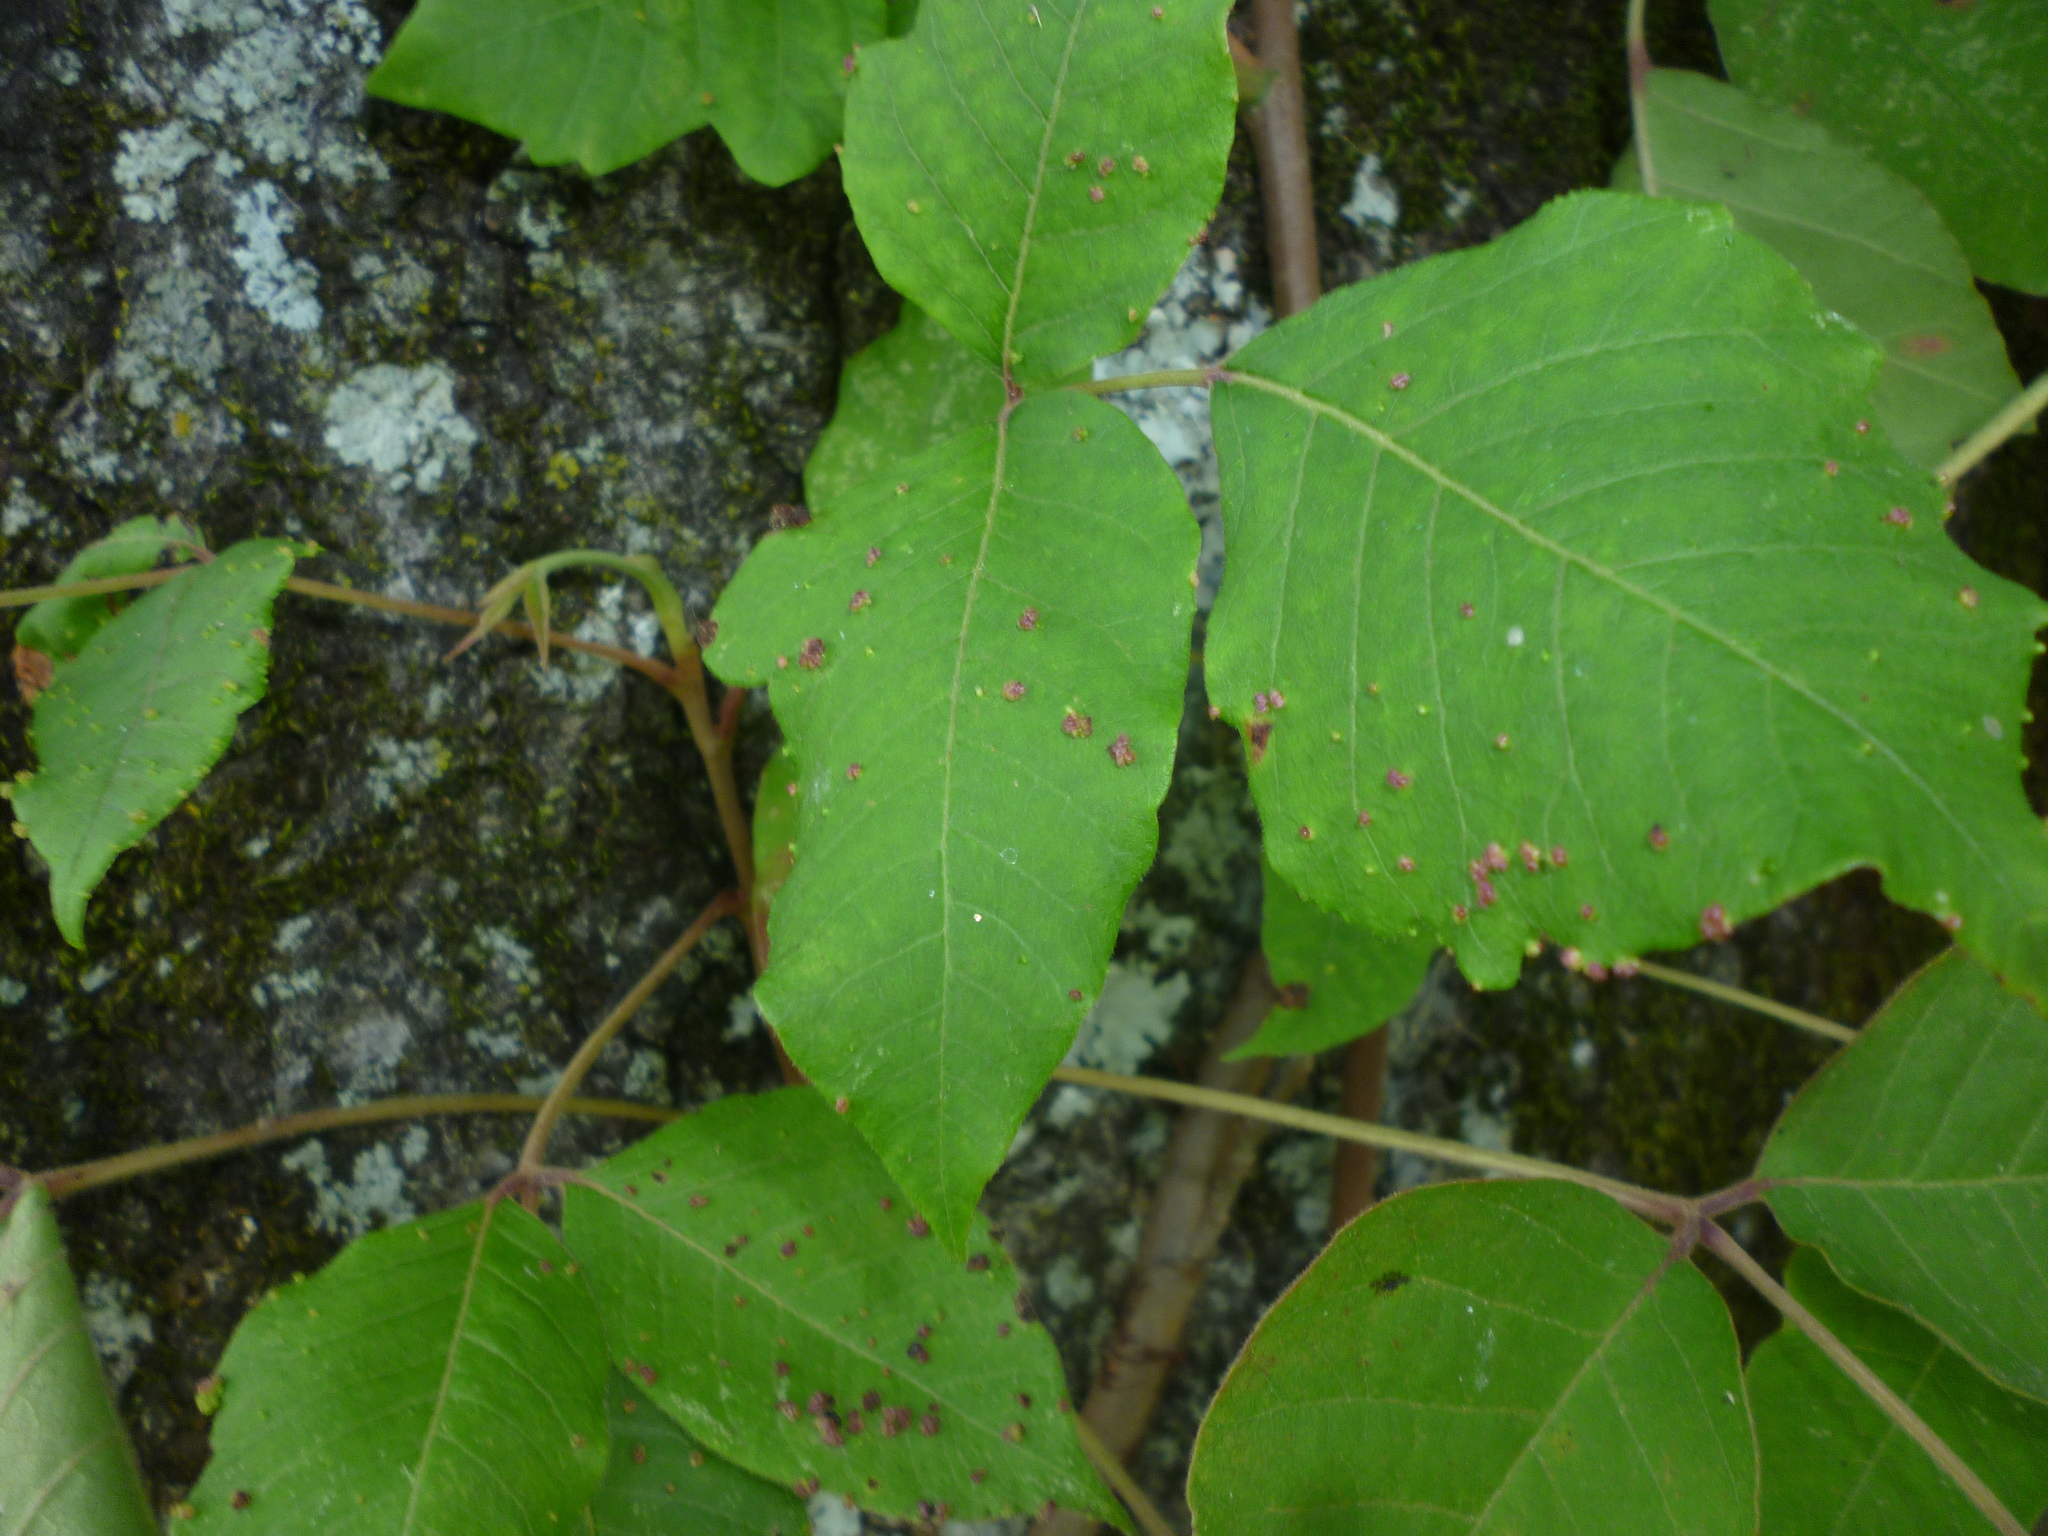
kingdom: Animalia
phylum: Arthropoda
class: Arachnida
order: Trombidiformes
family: Eriophyidae
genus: Aculops
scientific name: Aculops
